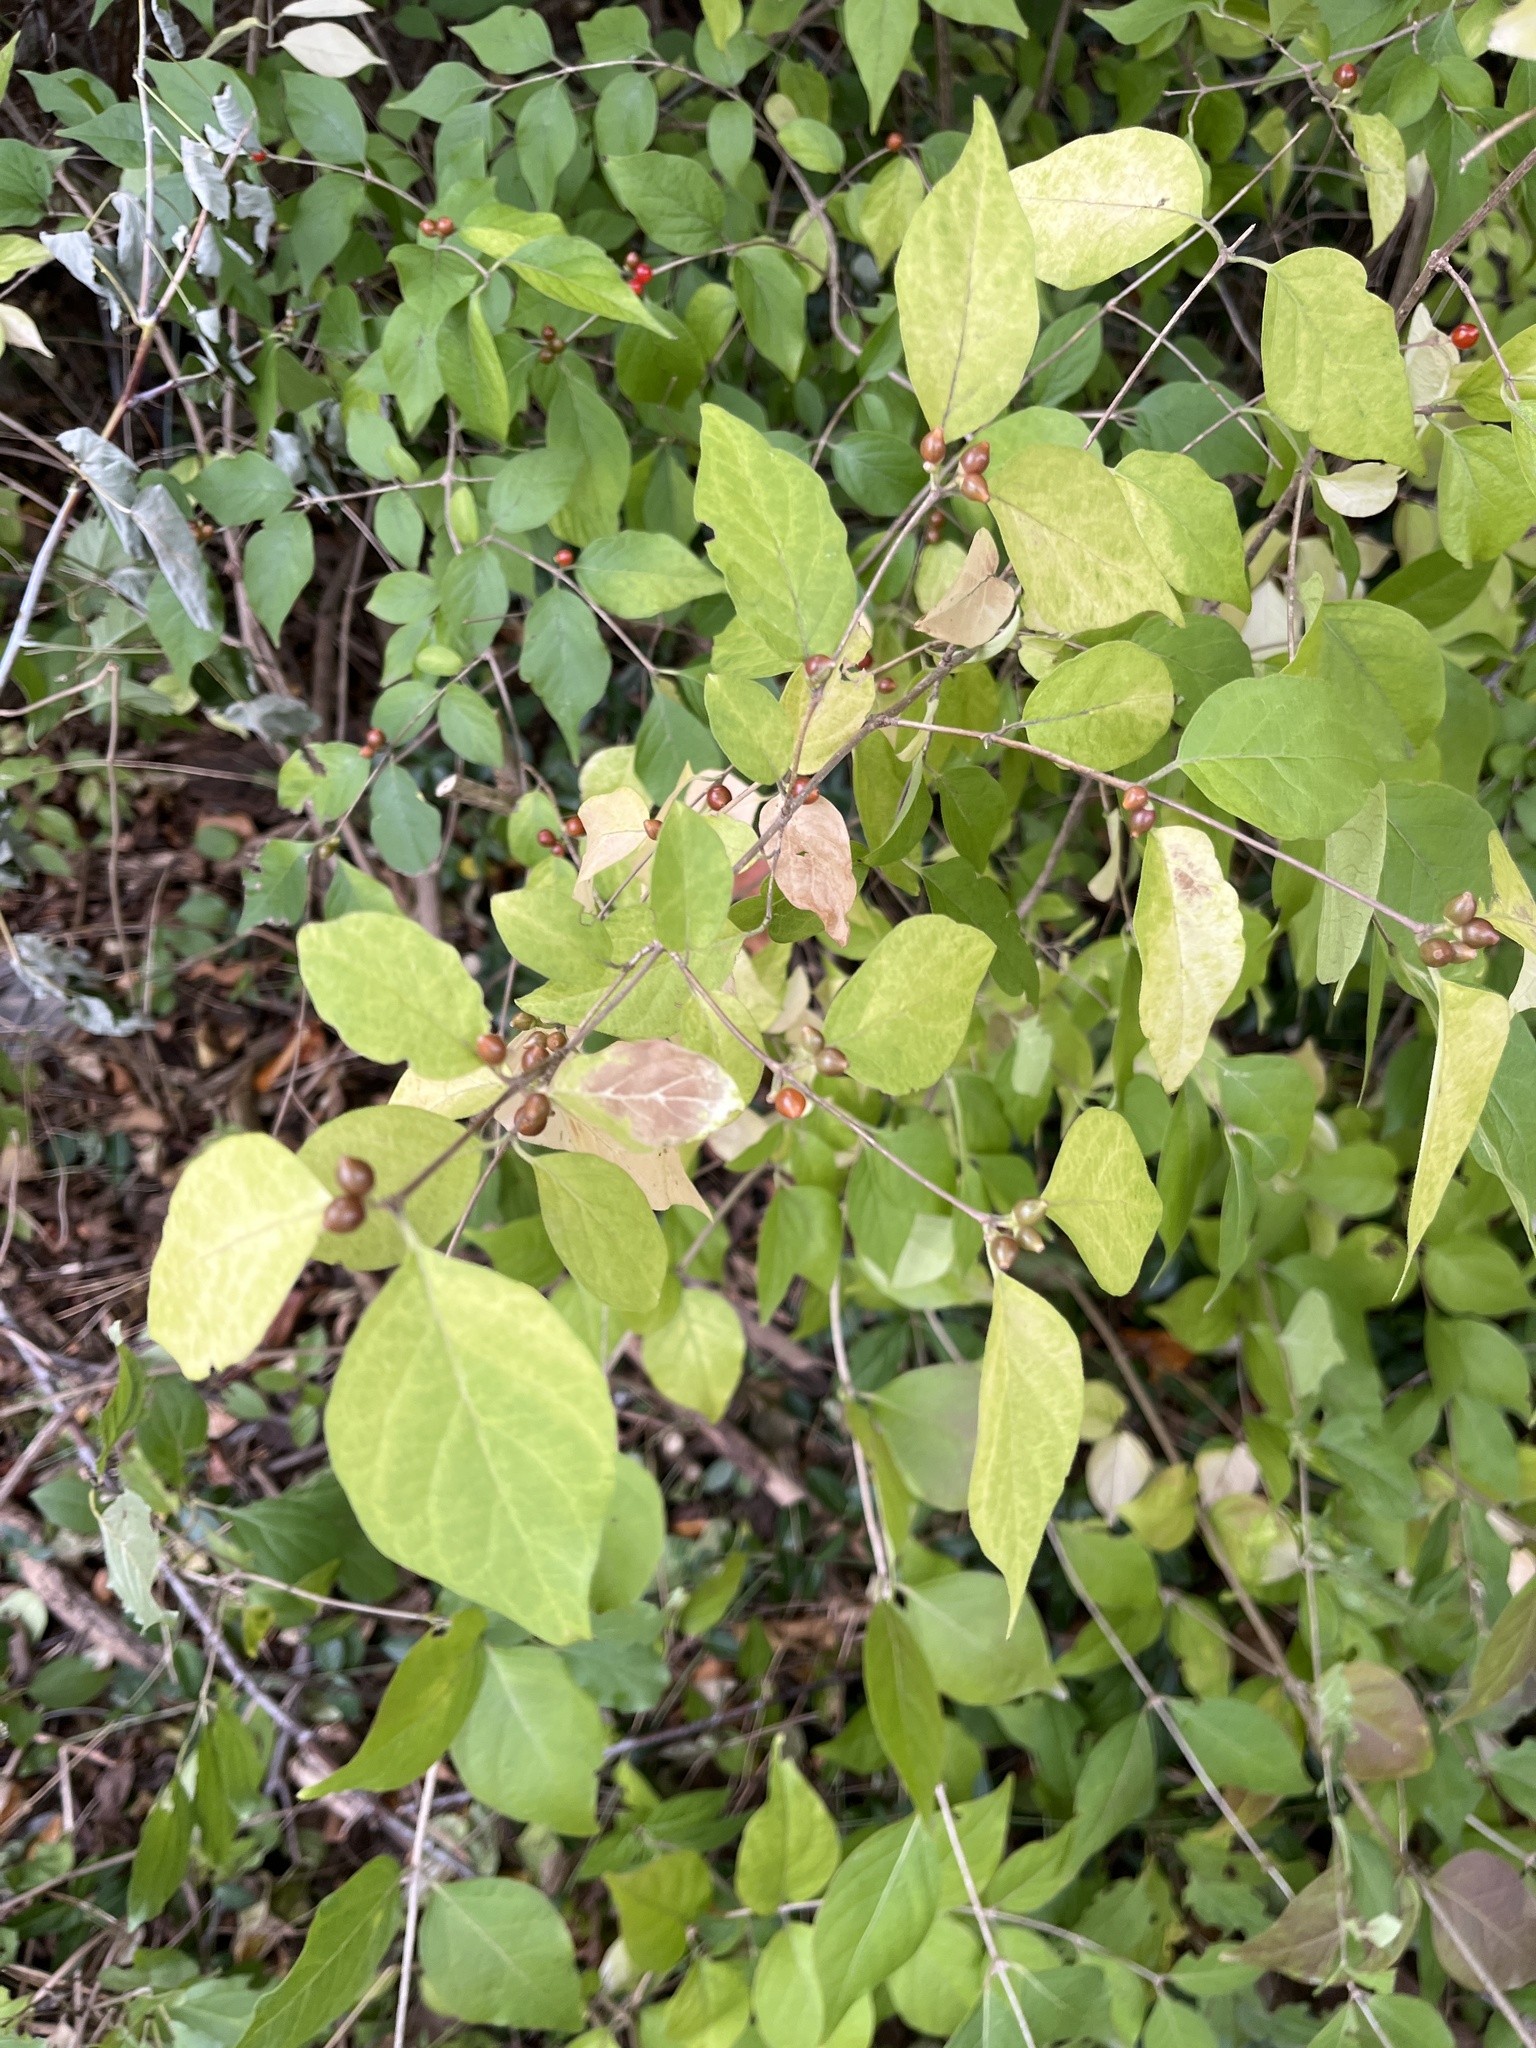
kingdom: Plantae
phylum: Tracheophyta
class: Magnoliopsida
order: Dipsacales
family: Caprifoliaceae
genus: Lonicera
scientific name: Lonicera maackii
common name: Amur honeysuckle
